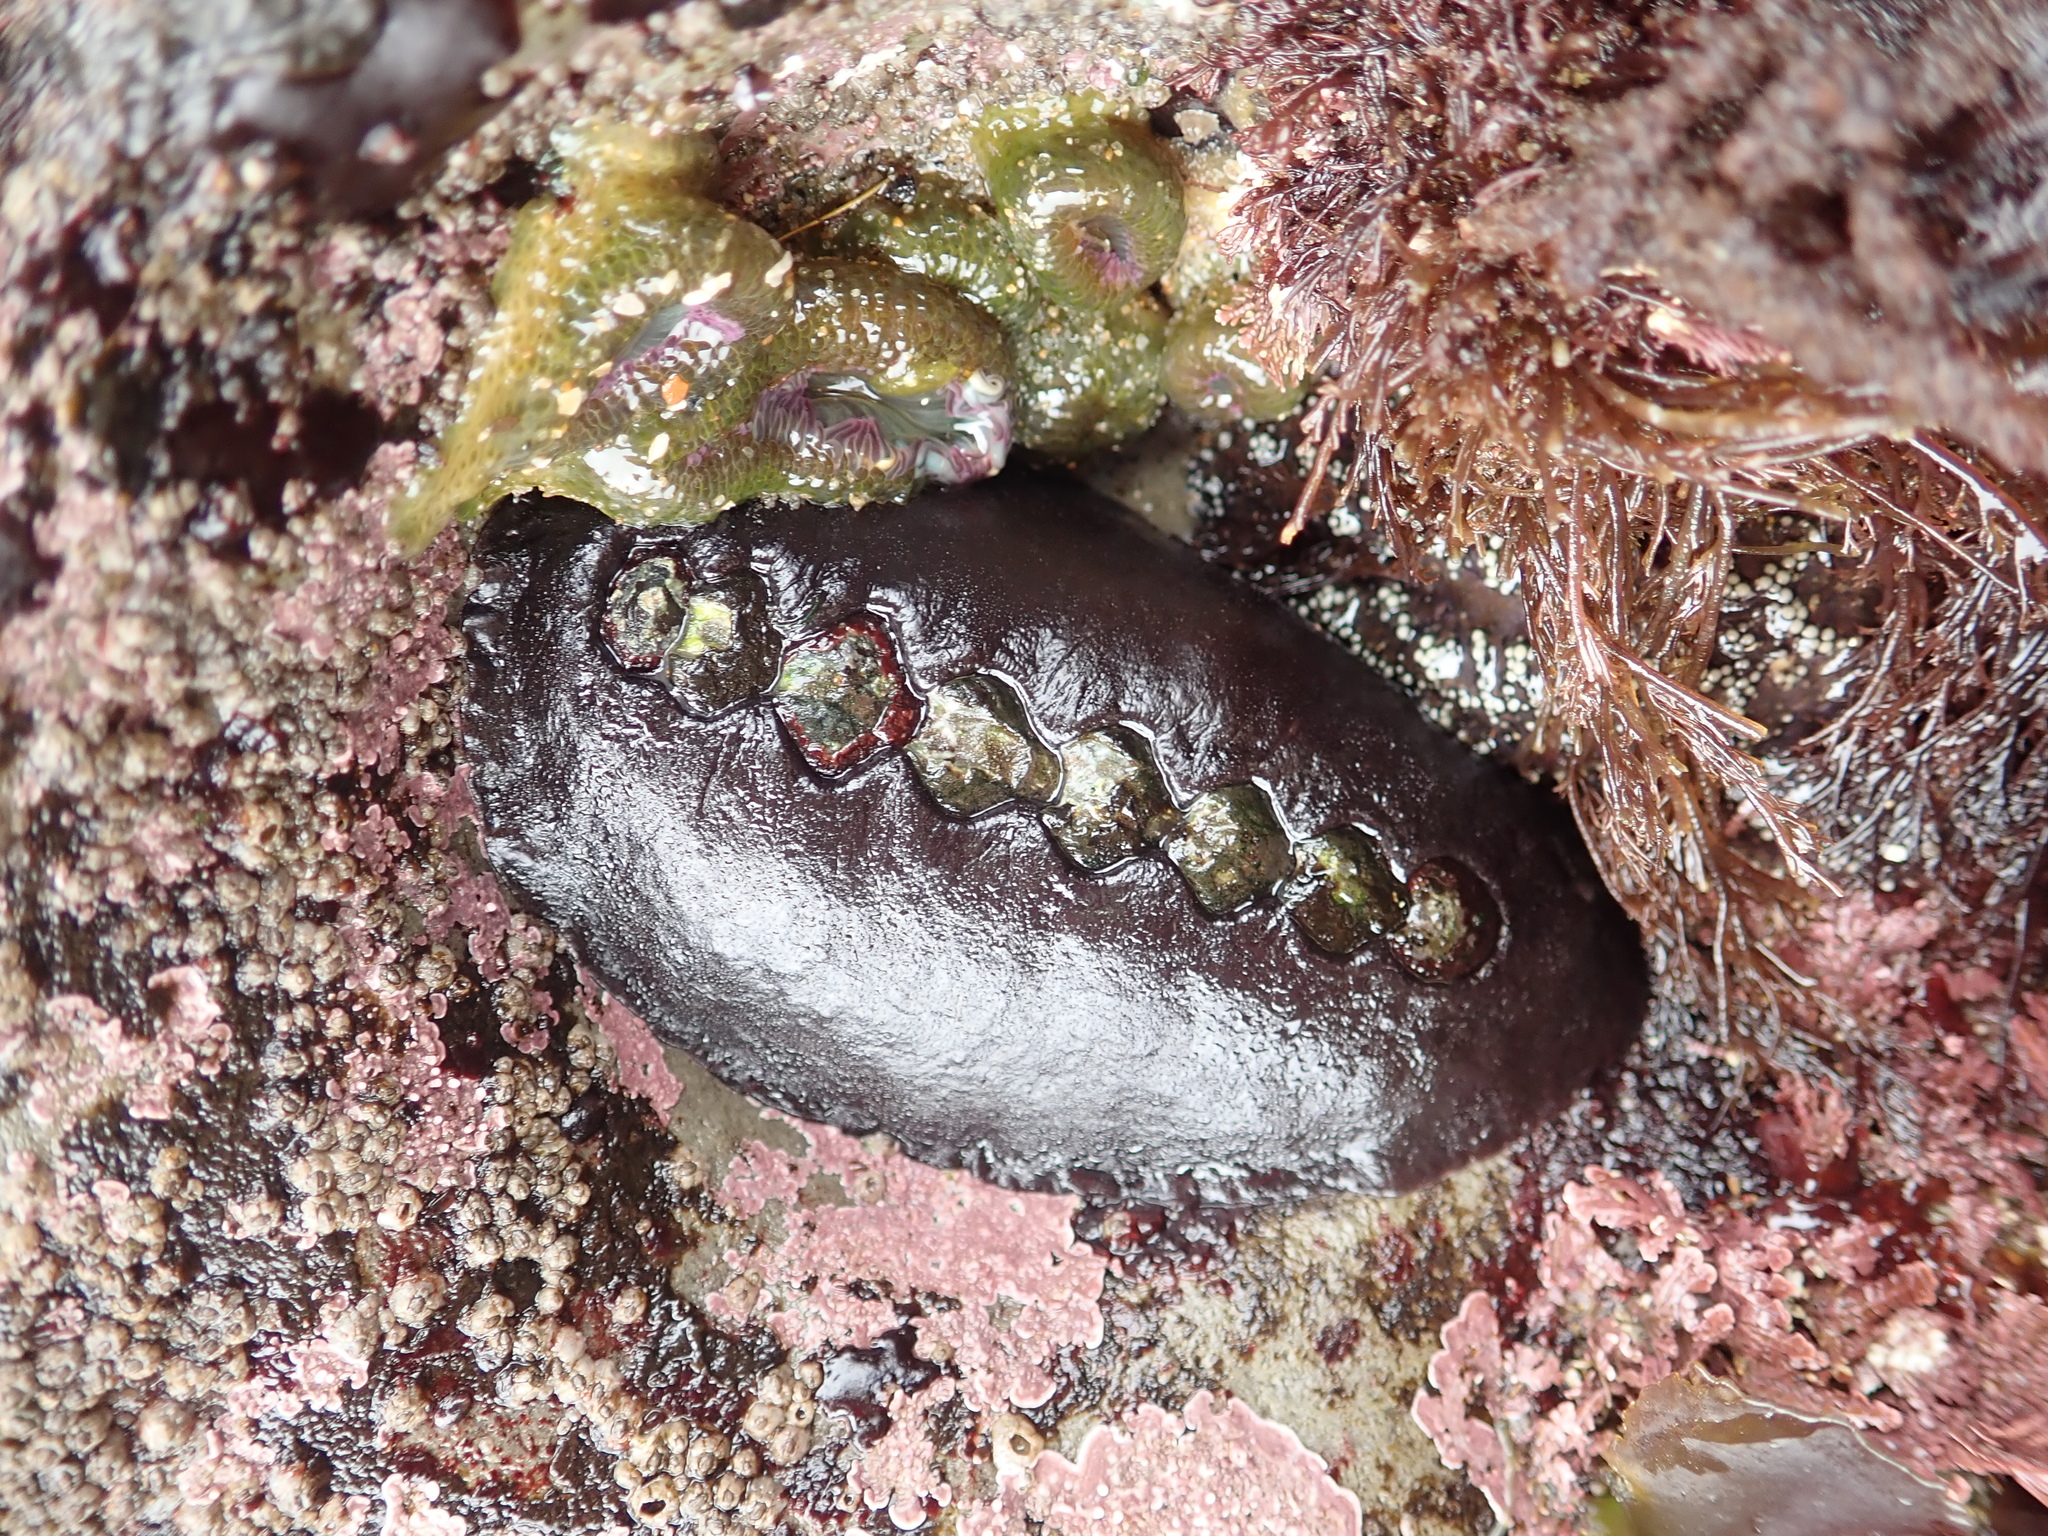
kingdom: Animalia
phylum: Mollusca
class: Polyplacophora
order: Chitonida
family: Mopaliidae
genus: Katharina
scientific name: Katharina tunicata
